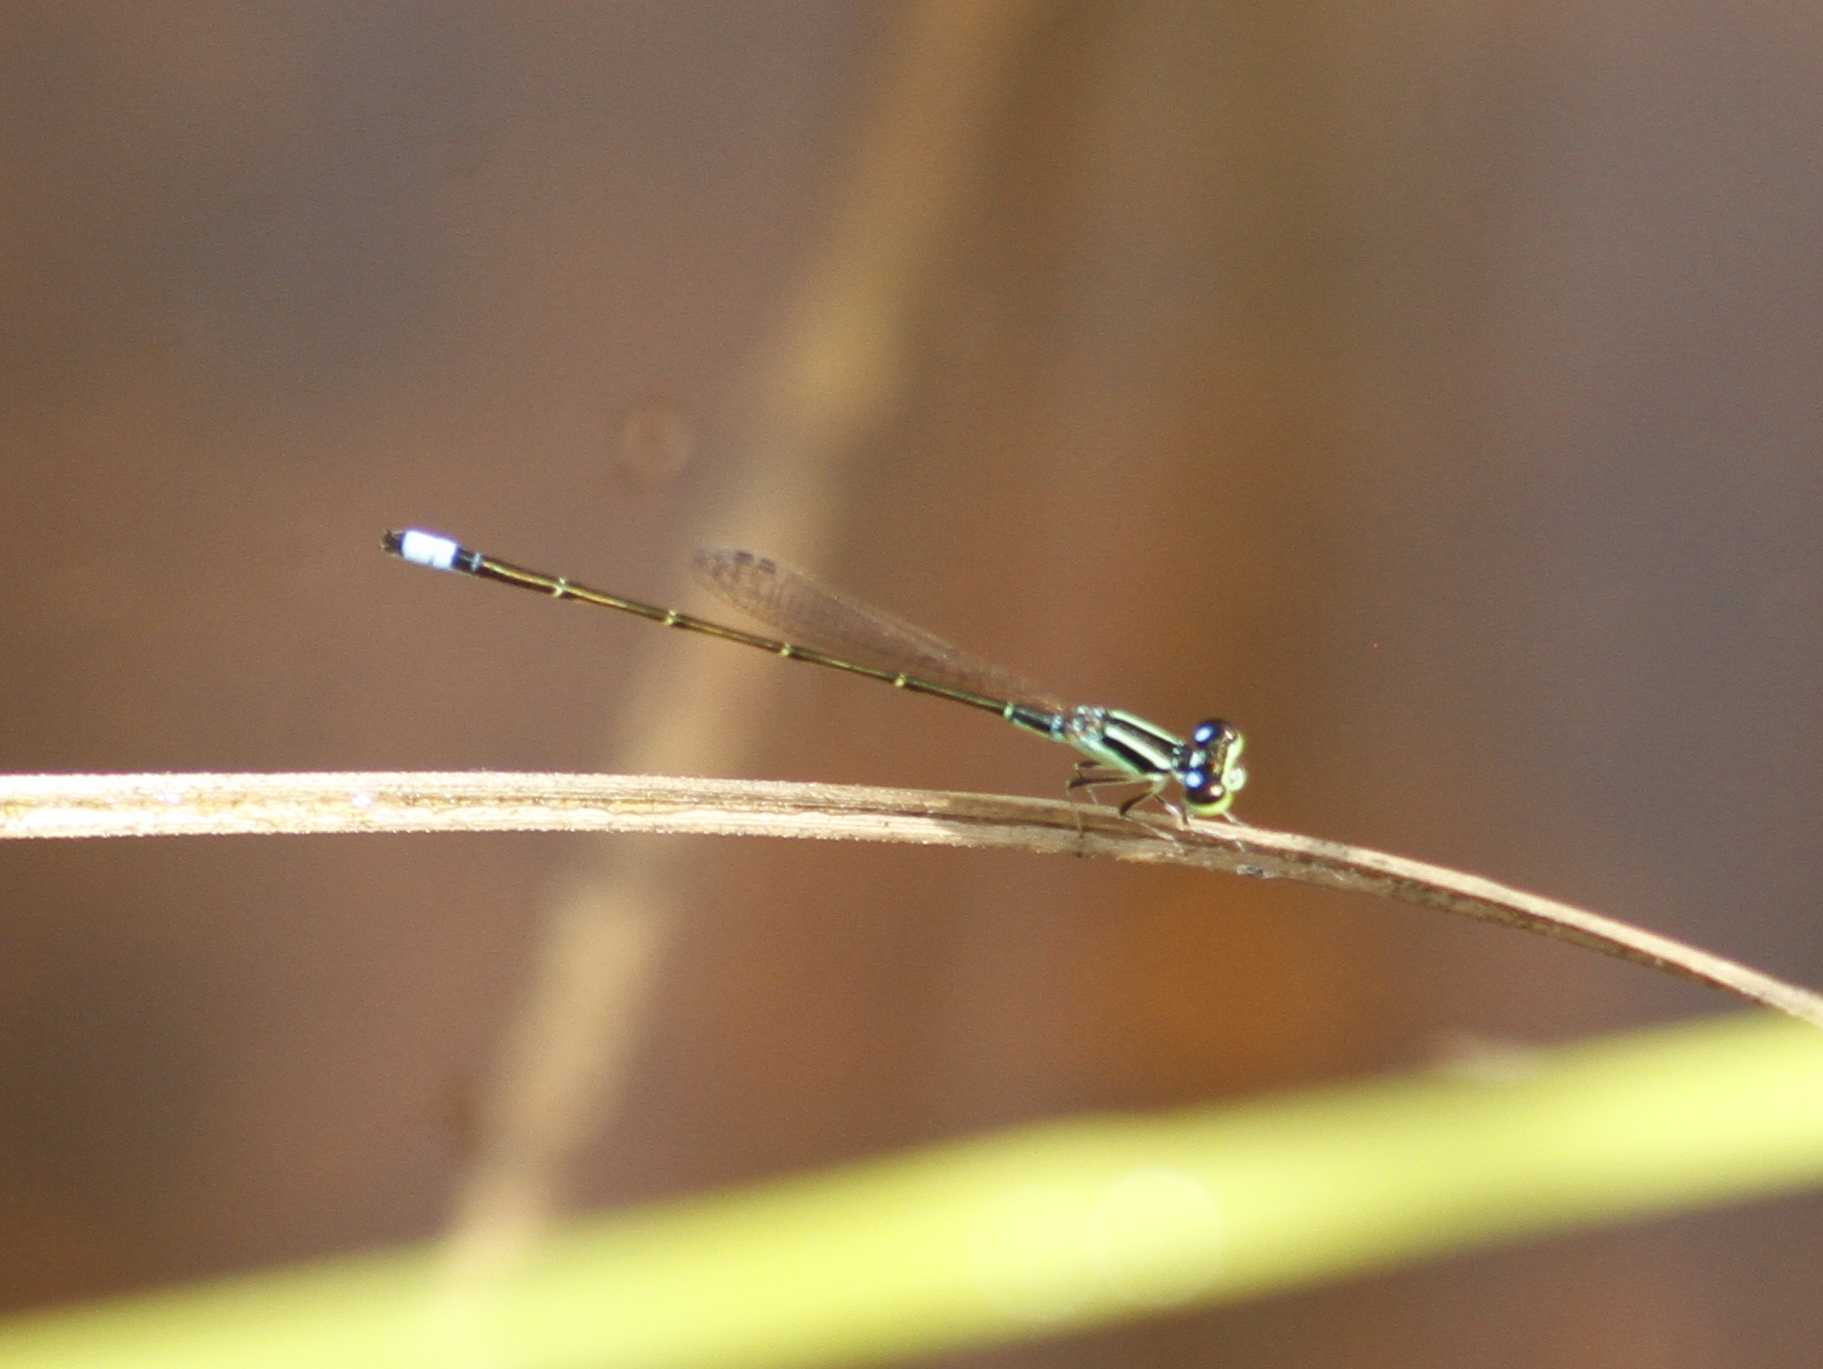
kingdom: Animalia
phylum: Arthropoda
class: Insecta
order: Odonata
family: Coenagrionidae
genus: Ischnura
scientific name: Ischnura capreolus
